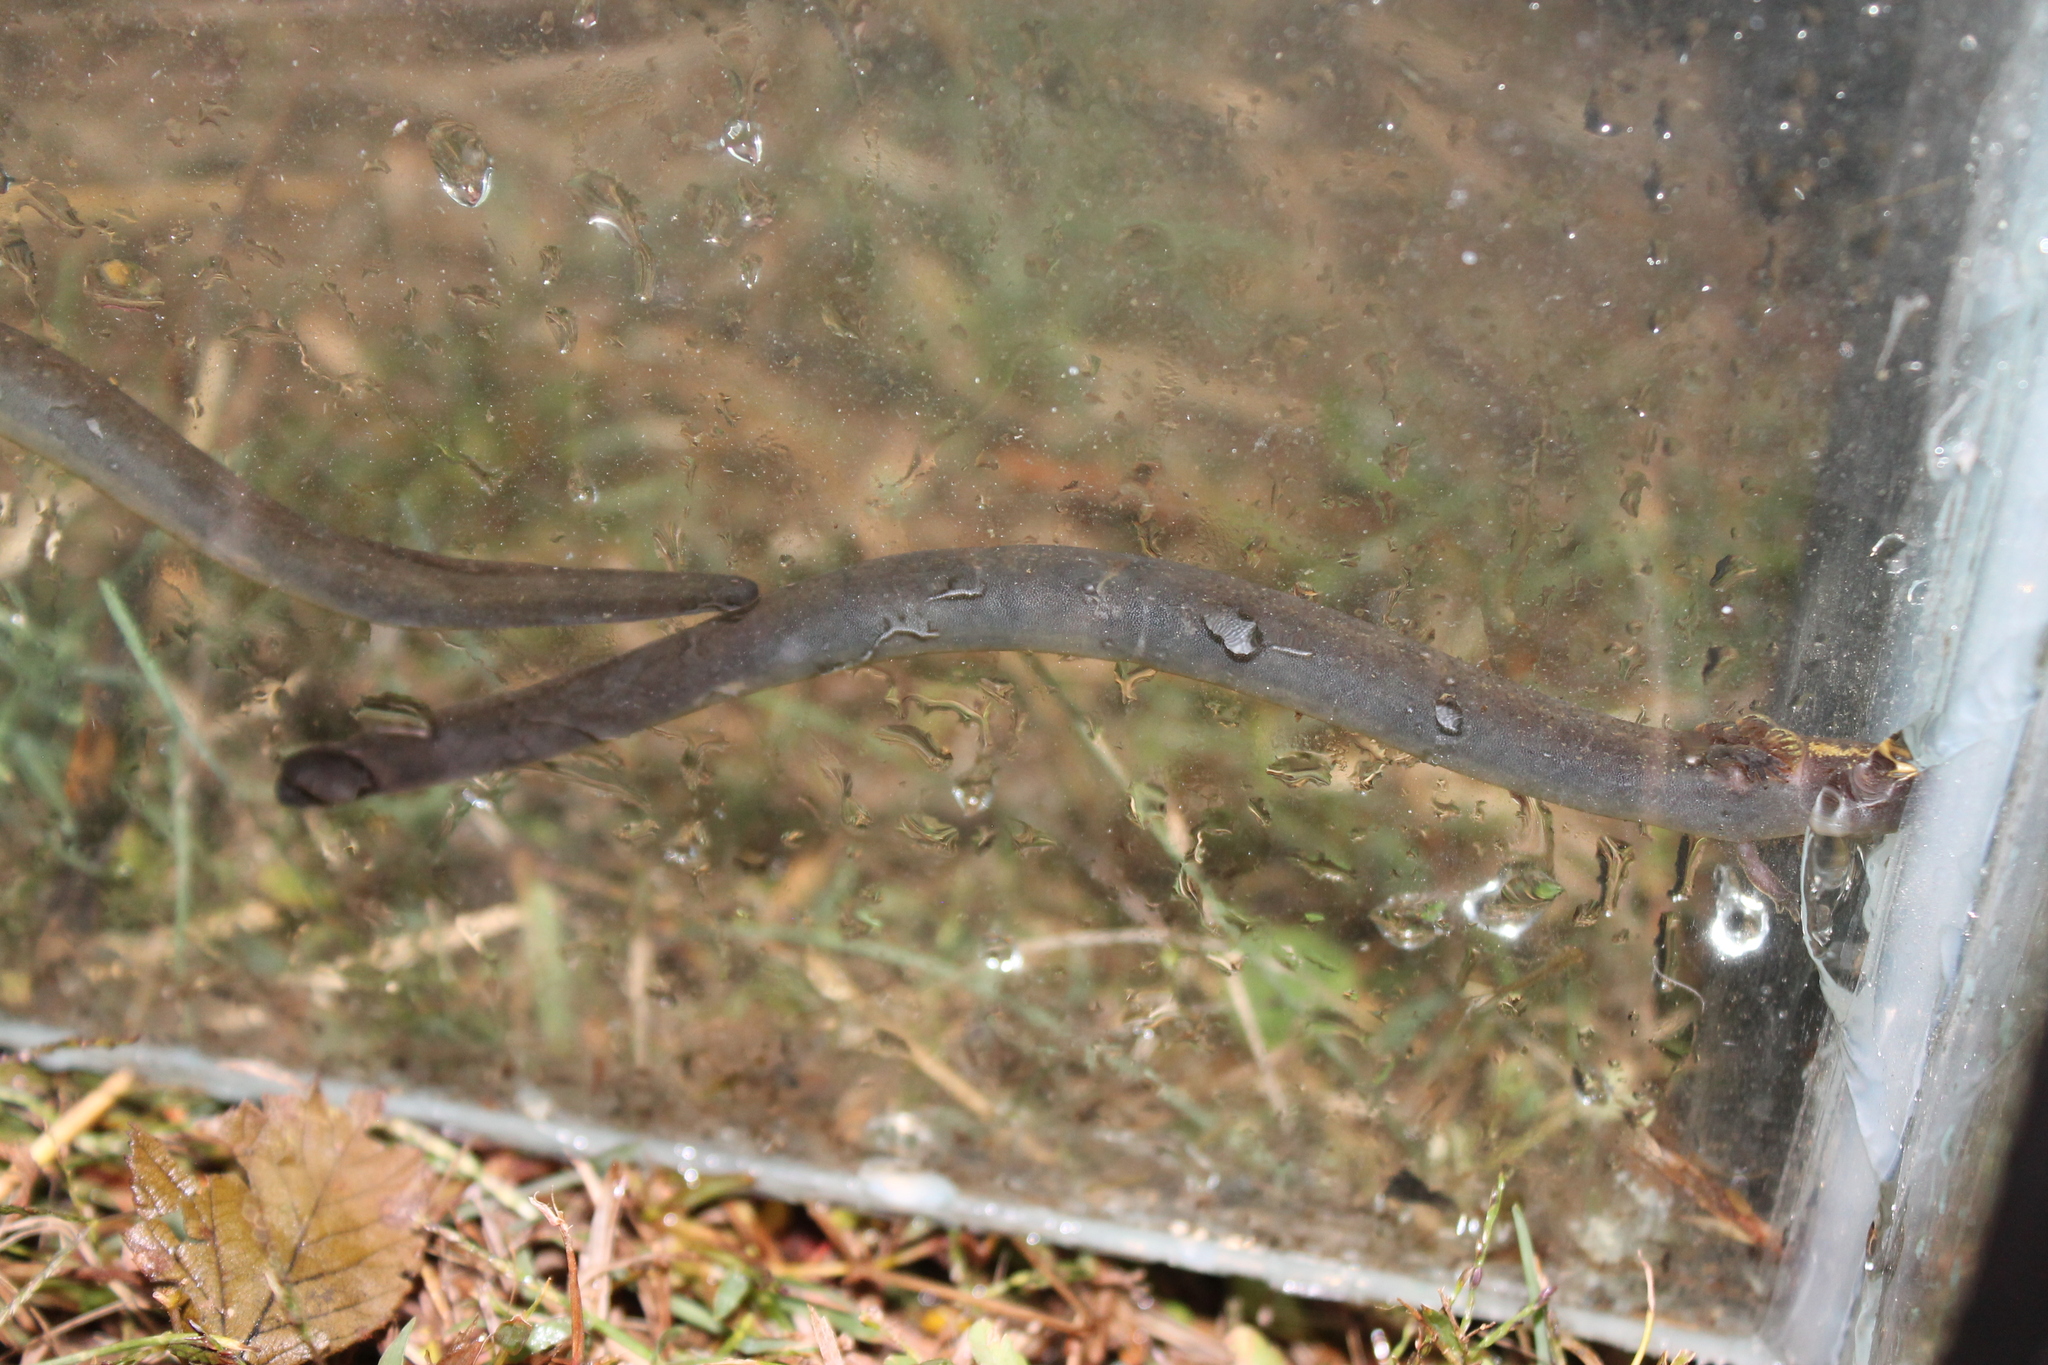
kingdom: Animalia
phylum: Chordata
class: Amphibia
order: Caudata
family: Sirenidae
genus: Siren
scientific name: Siren intermedia
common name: Lesser siren
